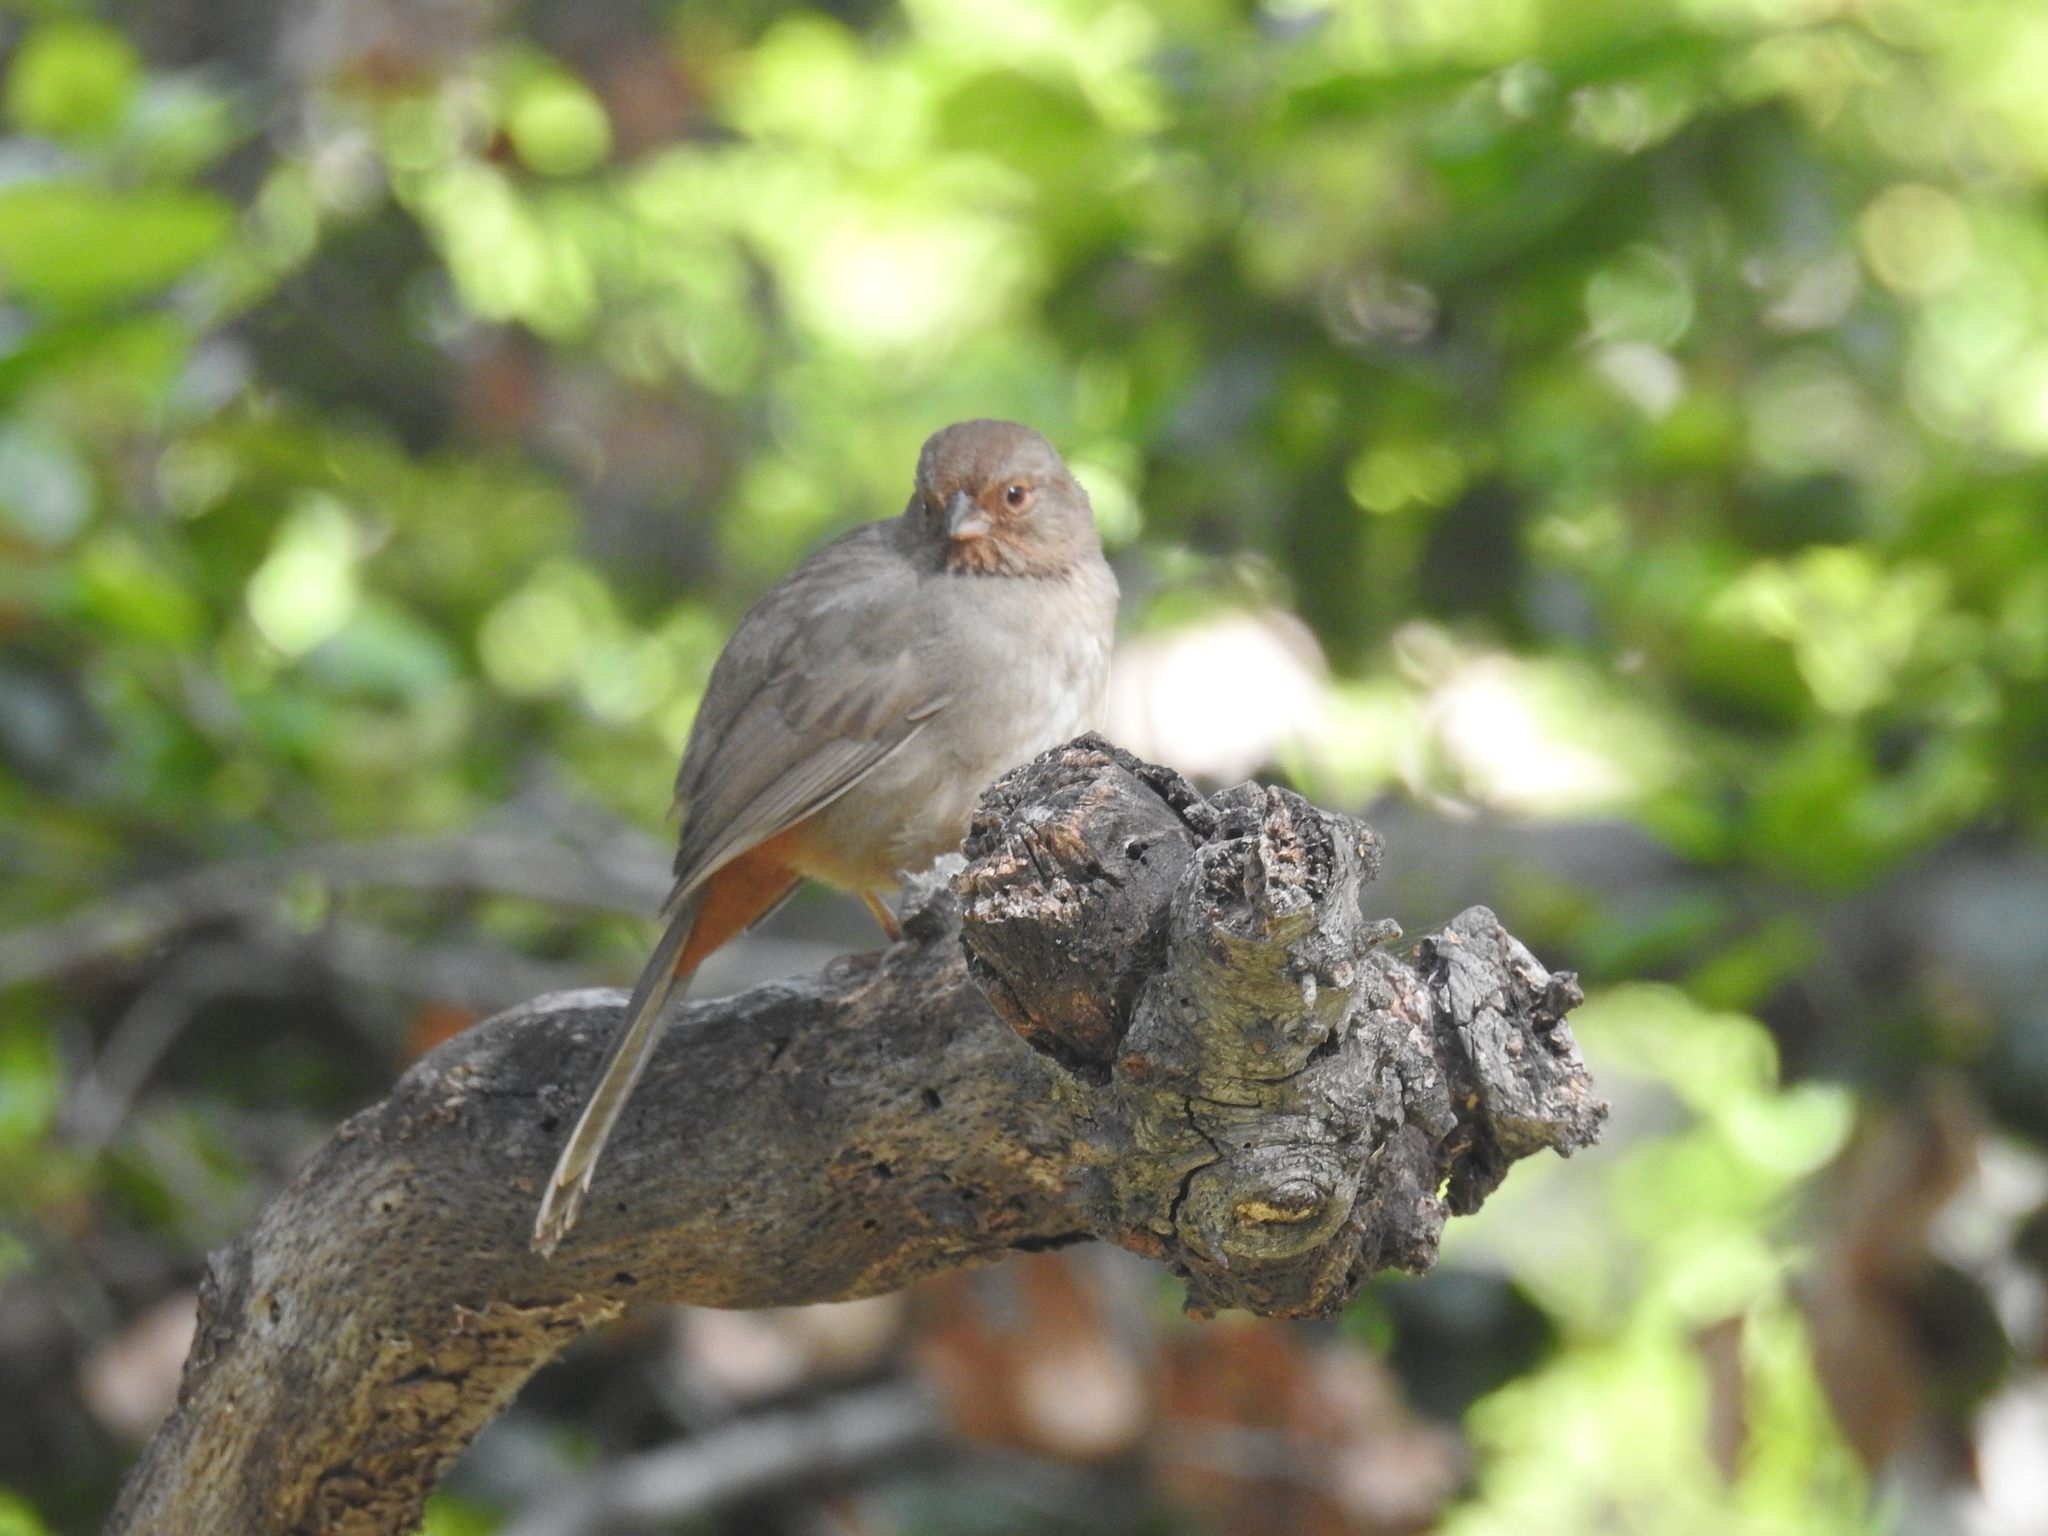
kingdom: Animalia
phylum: Chordata
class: Aves
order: Passeriformes
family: Passerellidae
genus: Melozone
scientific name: Melozone crissalis
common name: California towhee
